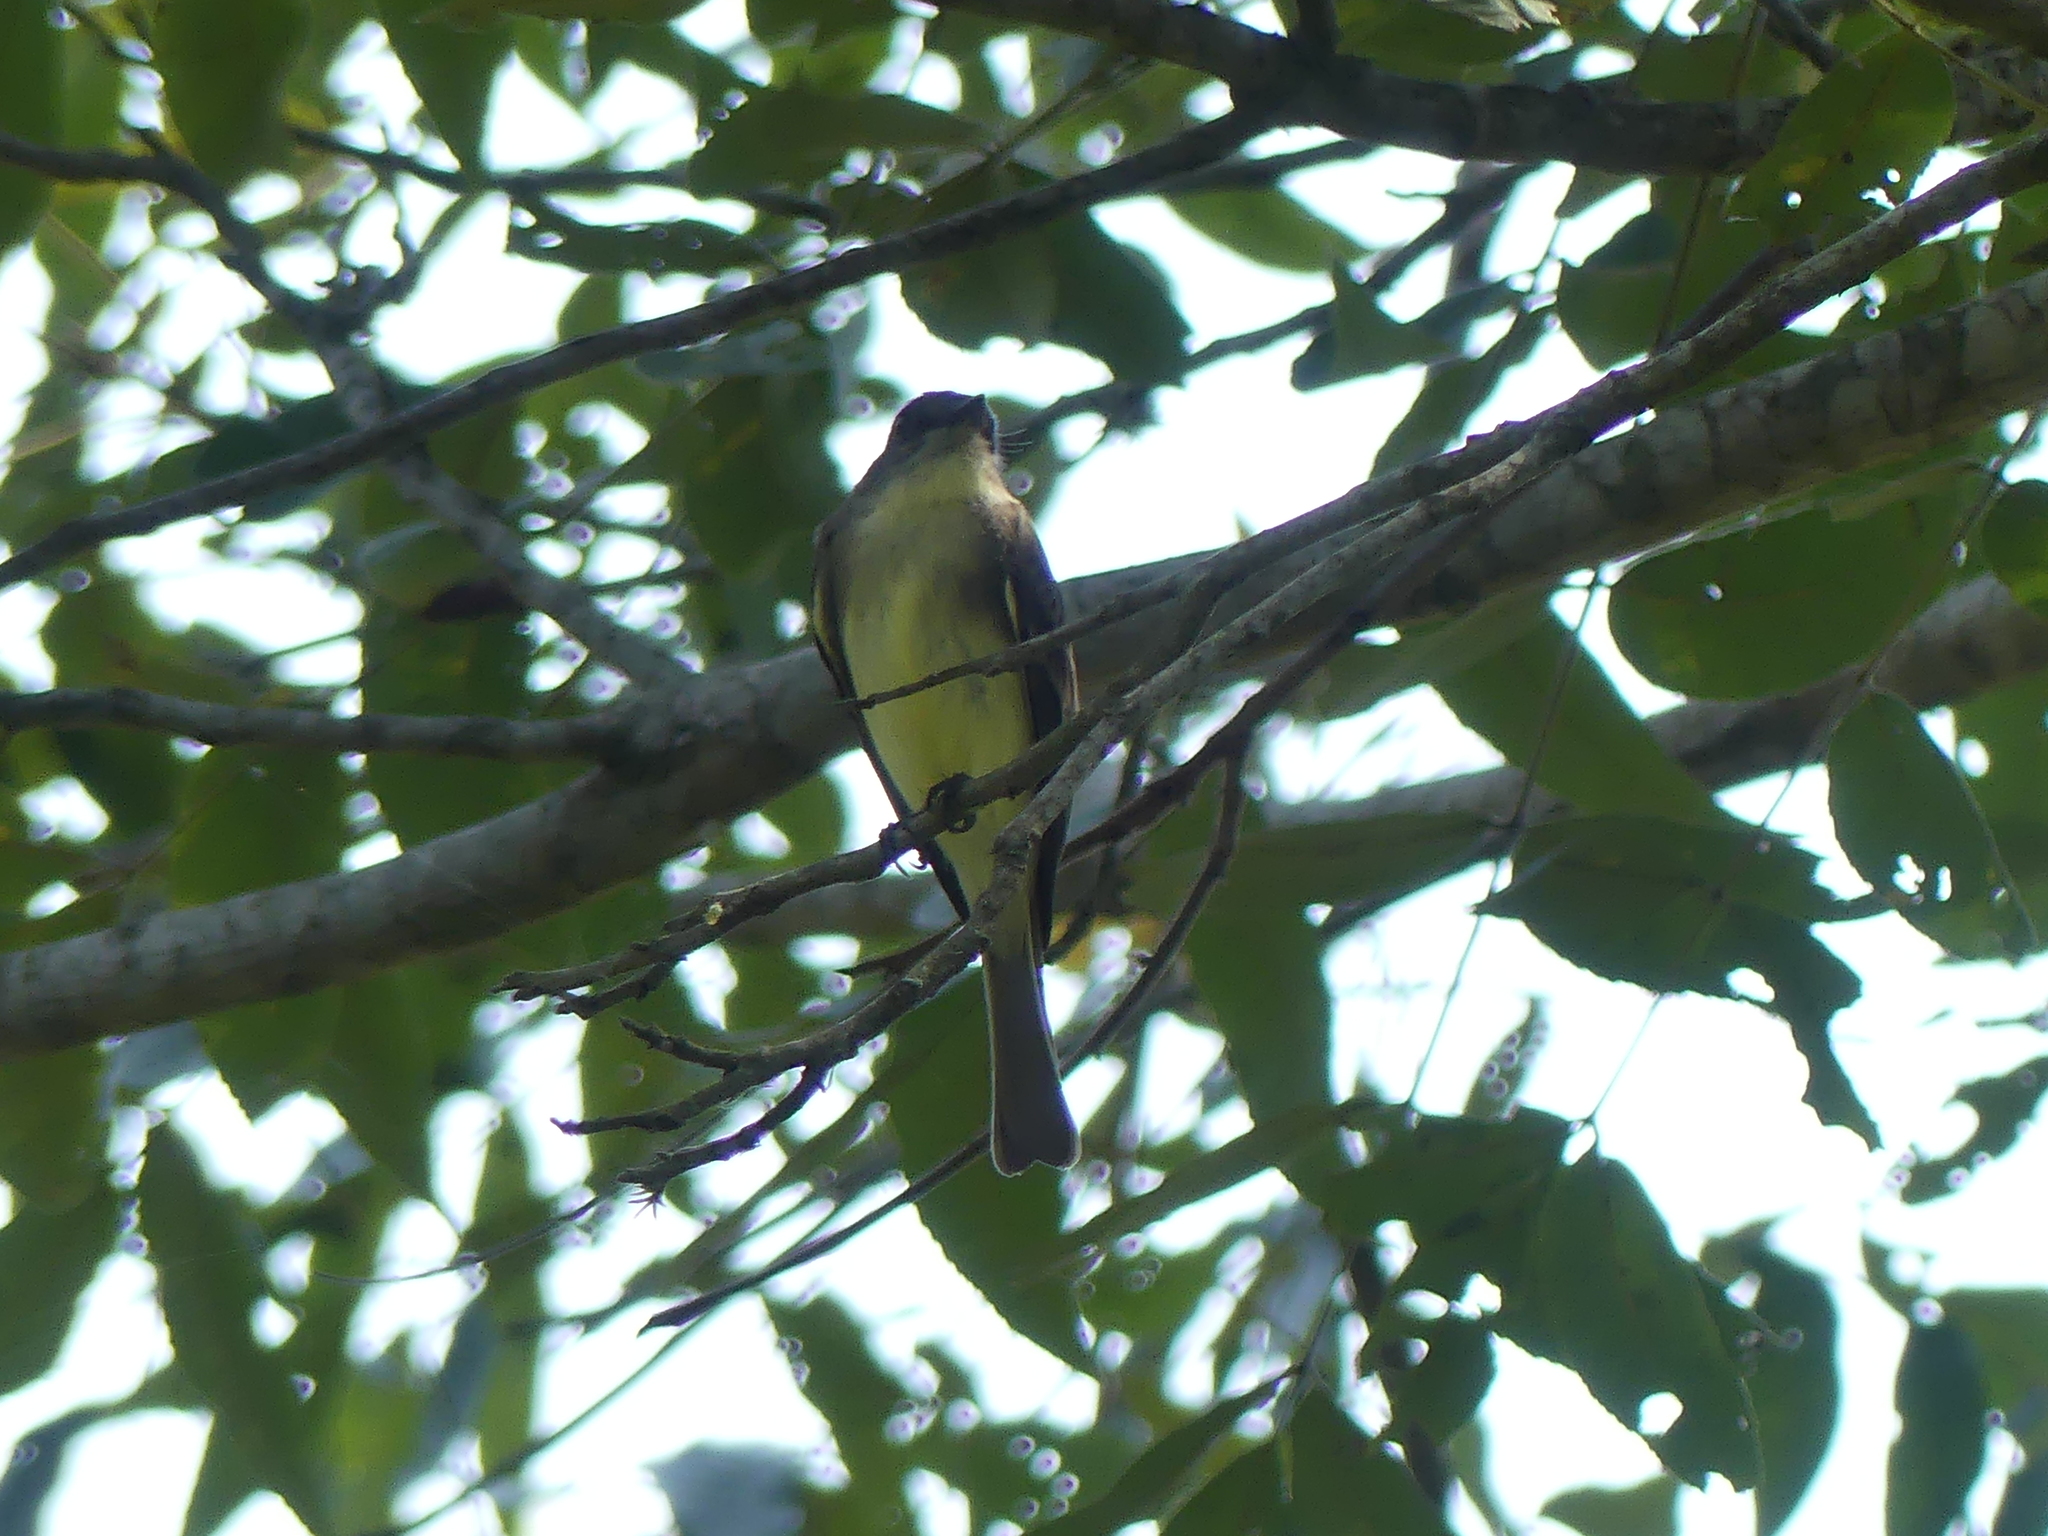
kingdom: Animalia
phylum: Chordata
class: Aves
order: Passeriformes
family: Tyrannidae
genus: Sayornis
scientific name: Sayornis phoebe
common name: Eastern phoebe
